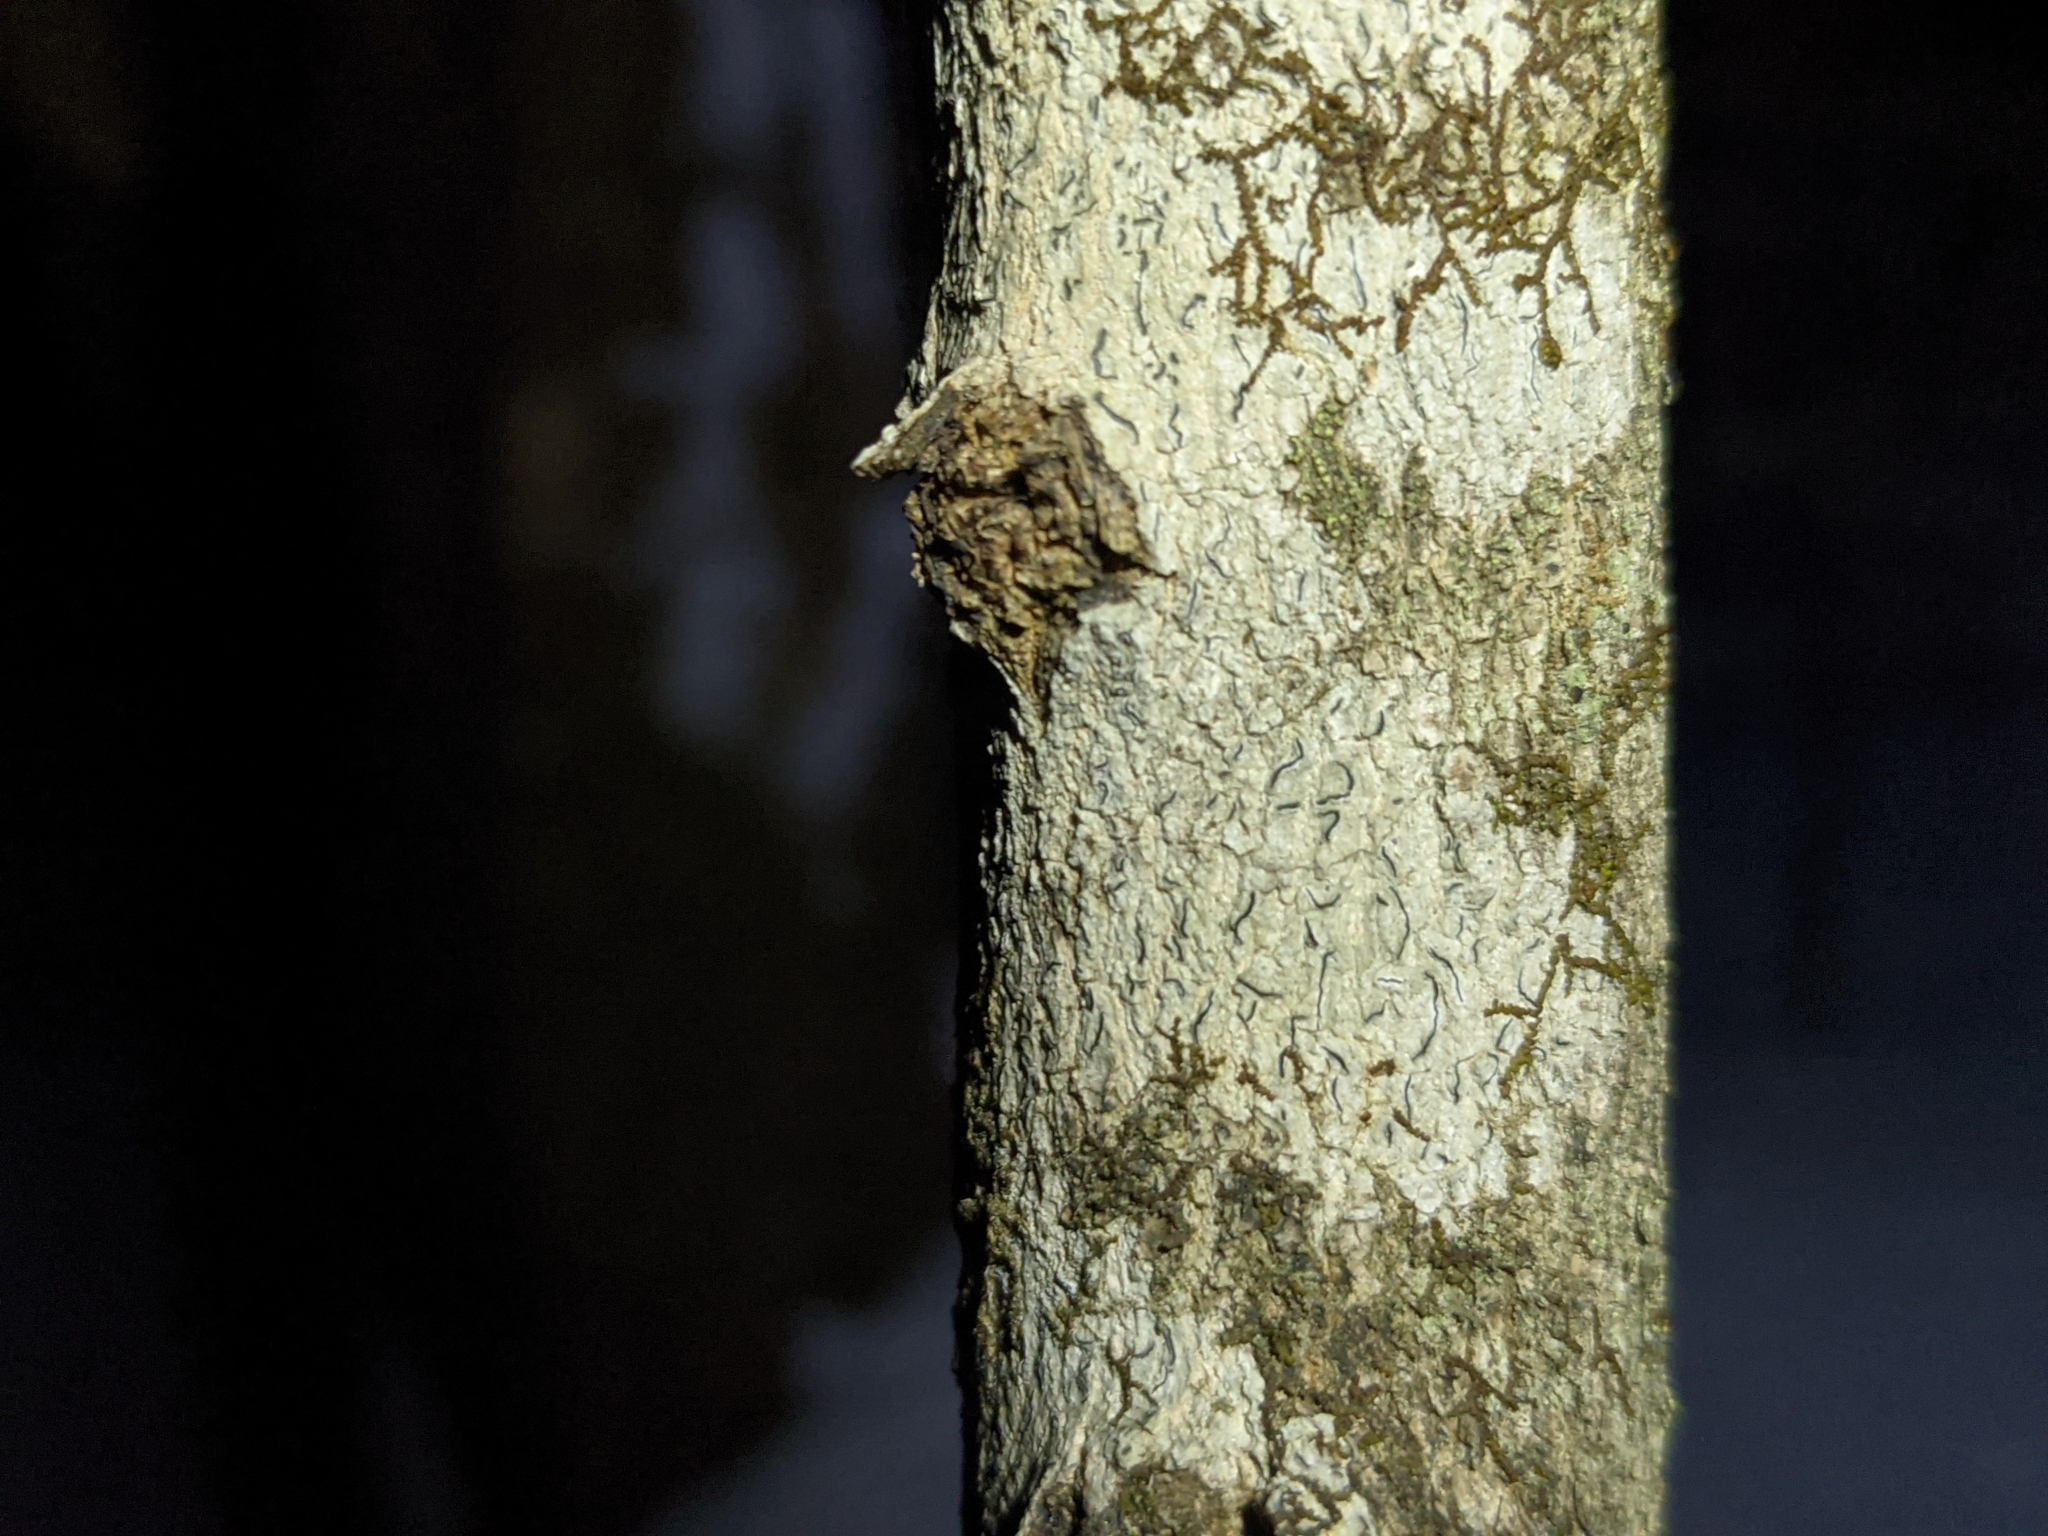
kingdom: Fungi
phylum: Ascomycota
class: Lecanoromycetes
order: Ostropales
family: Graphidaceae
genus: Graphis
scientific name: Graphis scripta
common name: Script lichen
